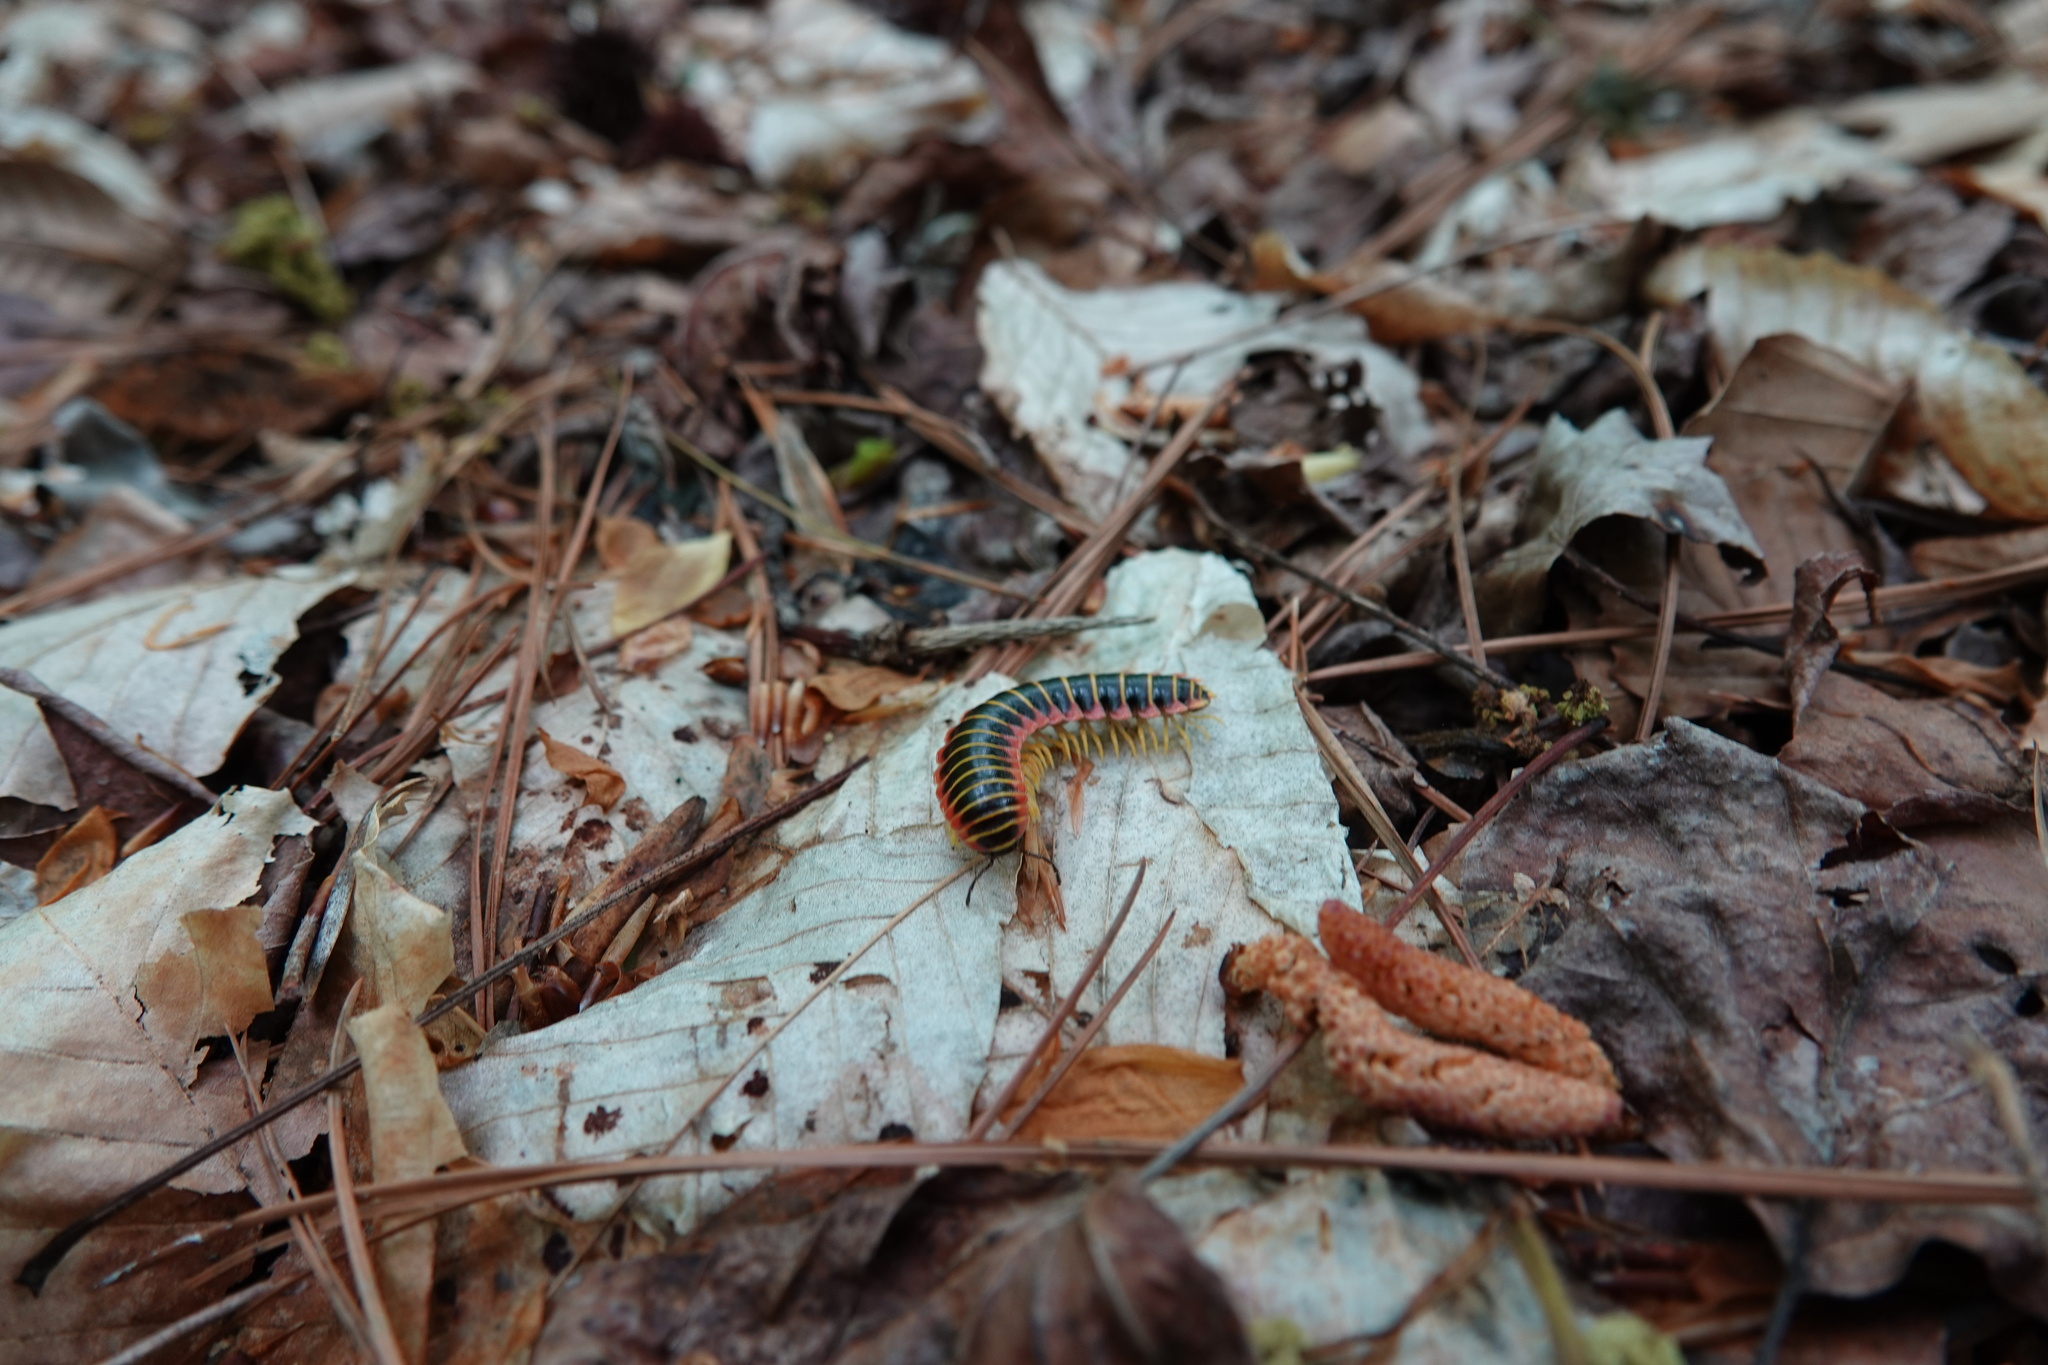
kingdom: Animalia
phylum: Arthropoda
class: Diplopoda
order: Polydesmida
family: Xystodesmidae
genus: Apheloria
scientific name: Apheloria virginiensis
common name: Black-and-gold flat millipede
